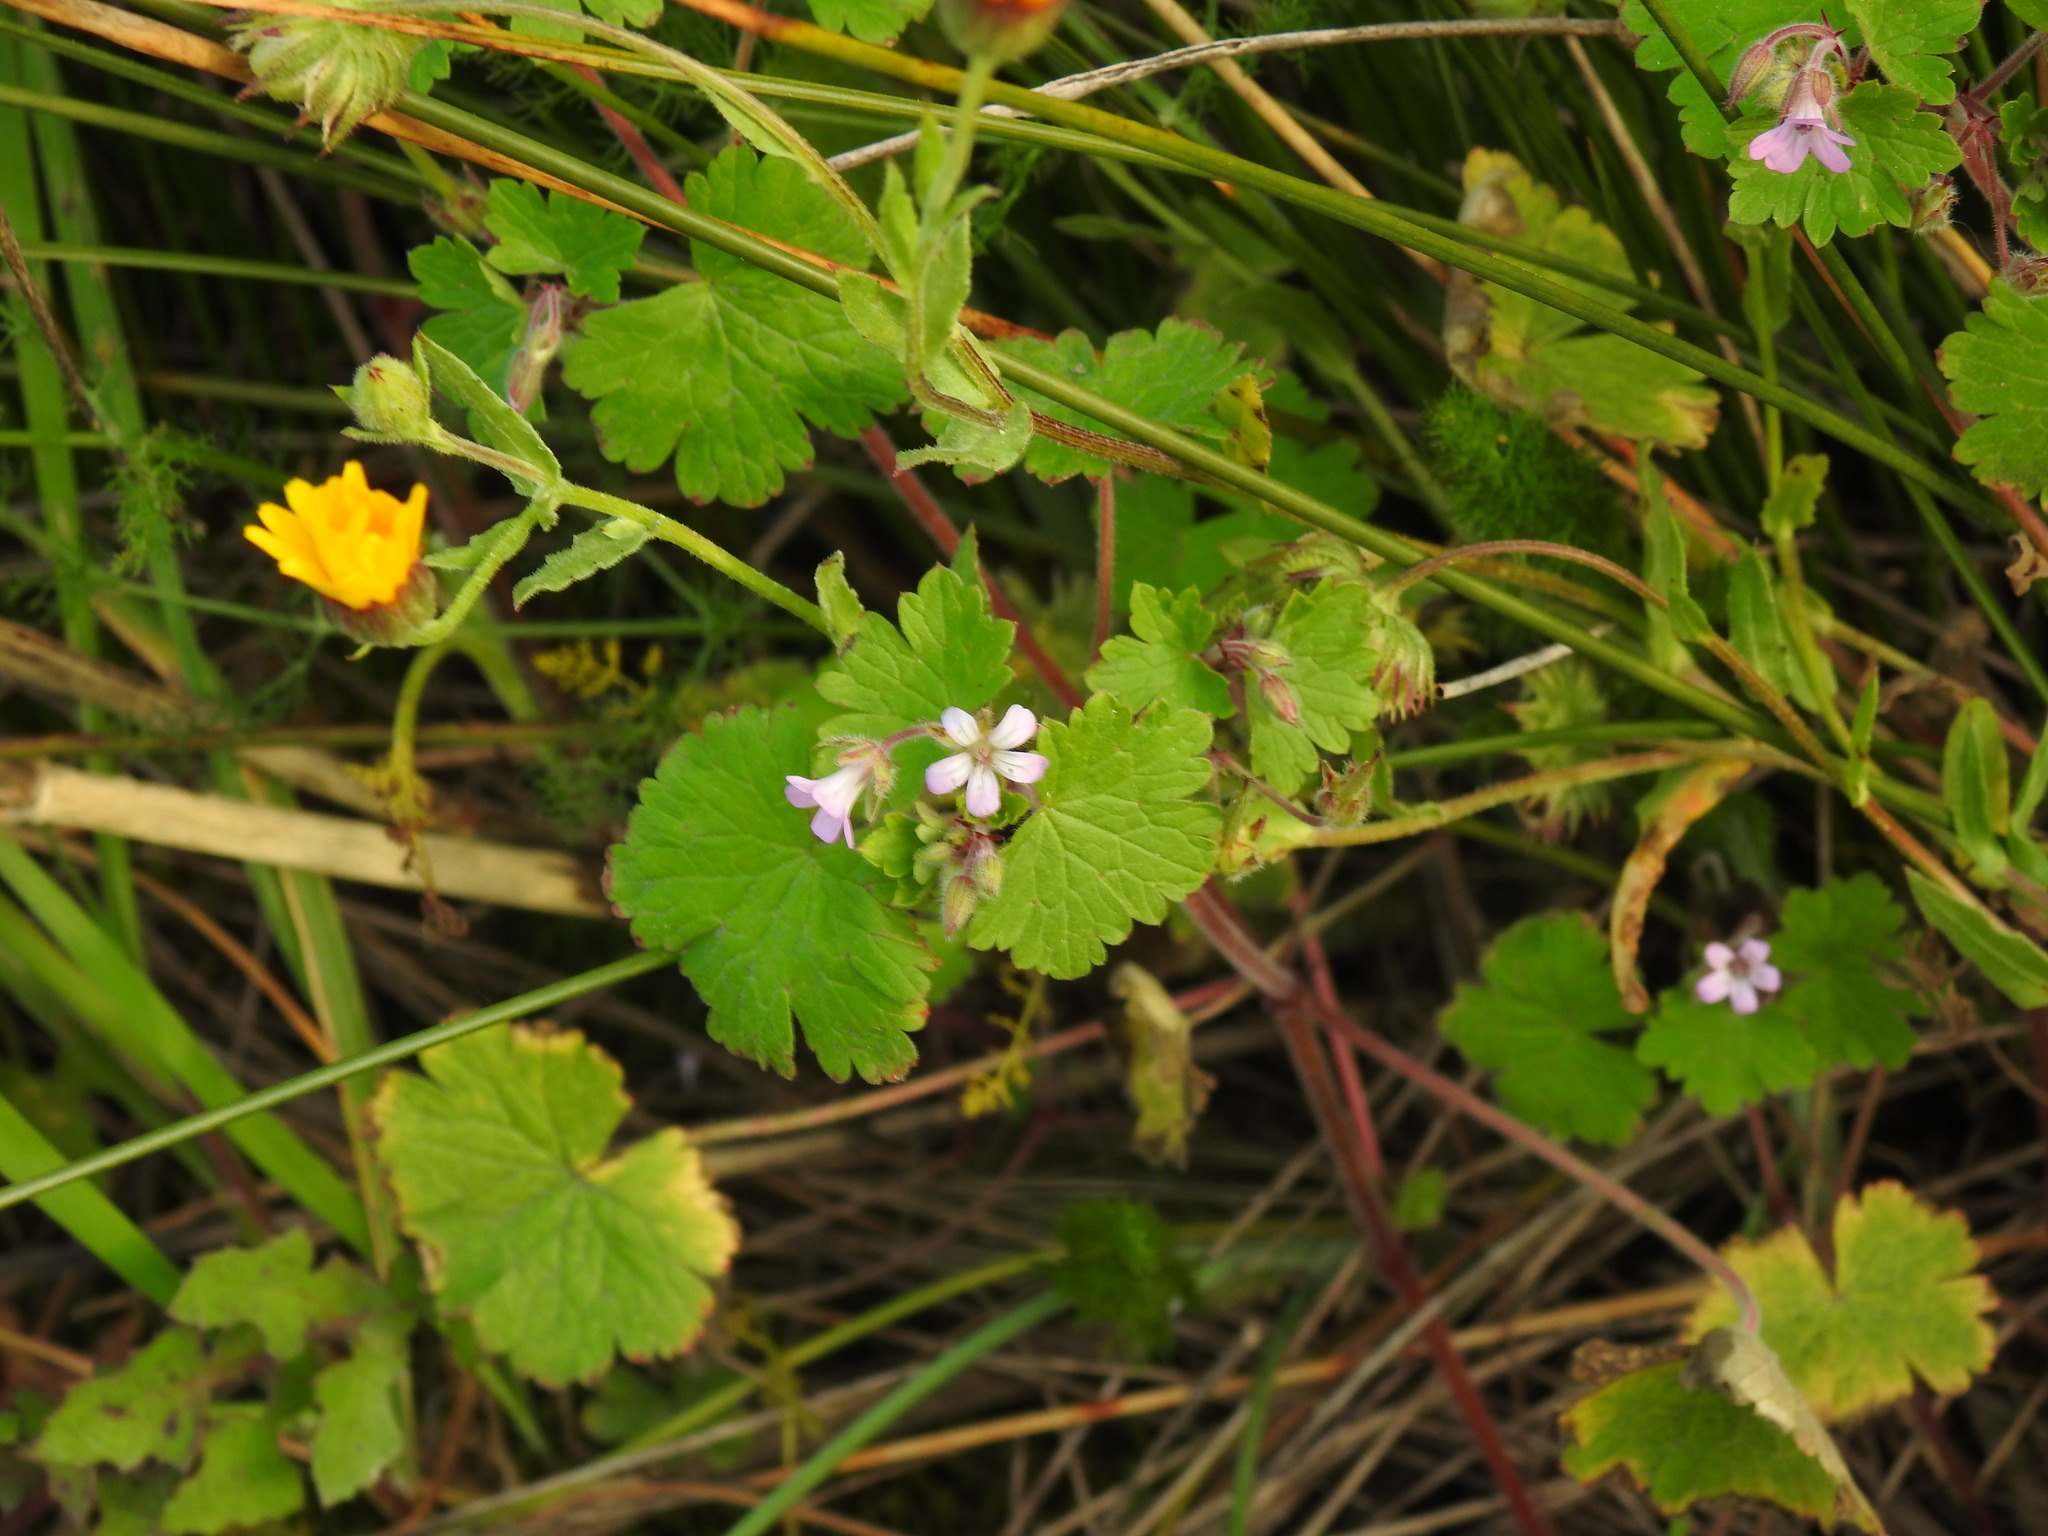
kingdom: Plantae
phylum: Tracheophyta
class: Magnoliopsida
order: Geraniales
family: Geraniaceae
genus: Geranium
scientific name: Geranium rotundifolium
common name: Round-leaved crane's-bill
